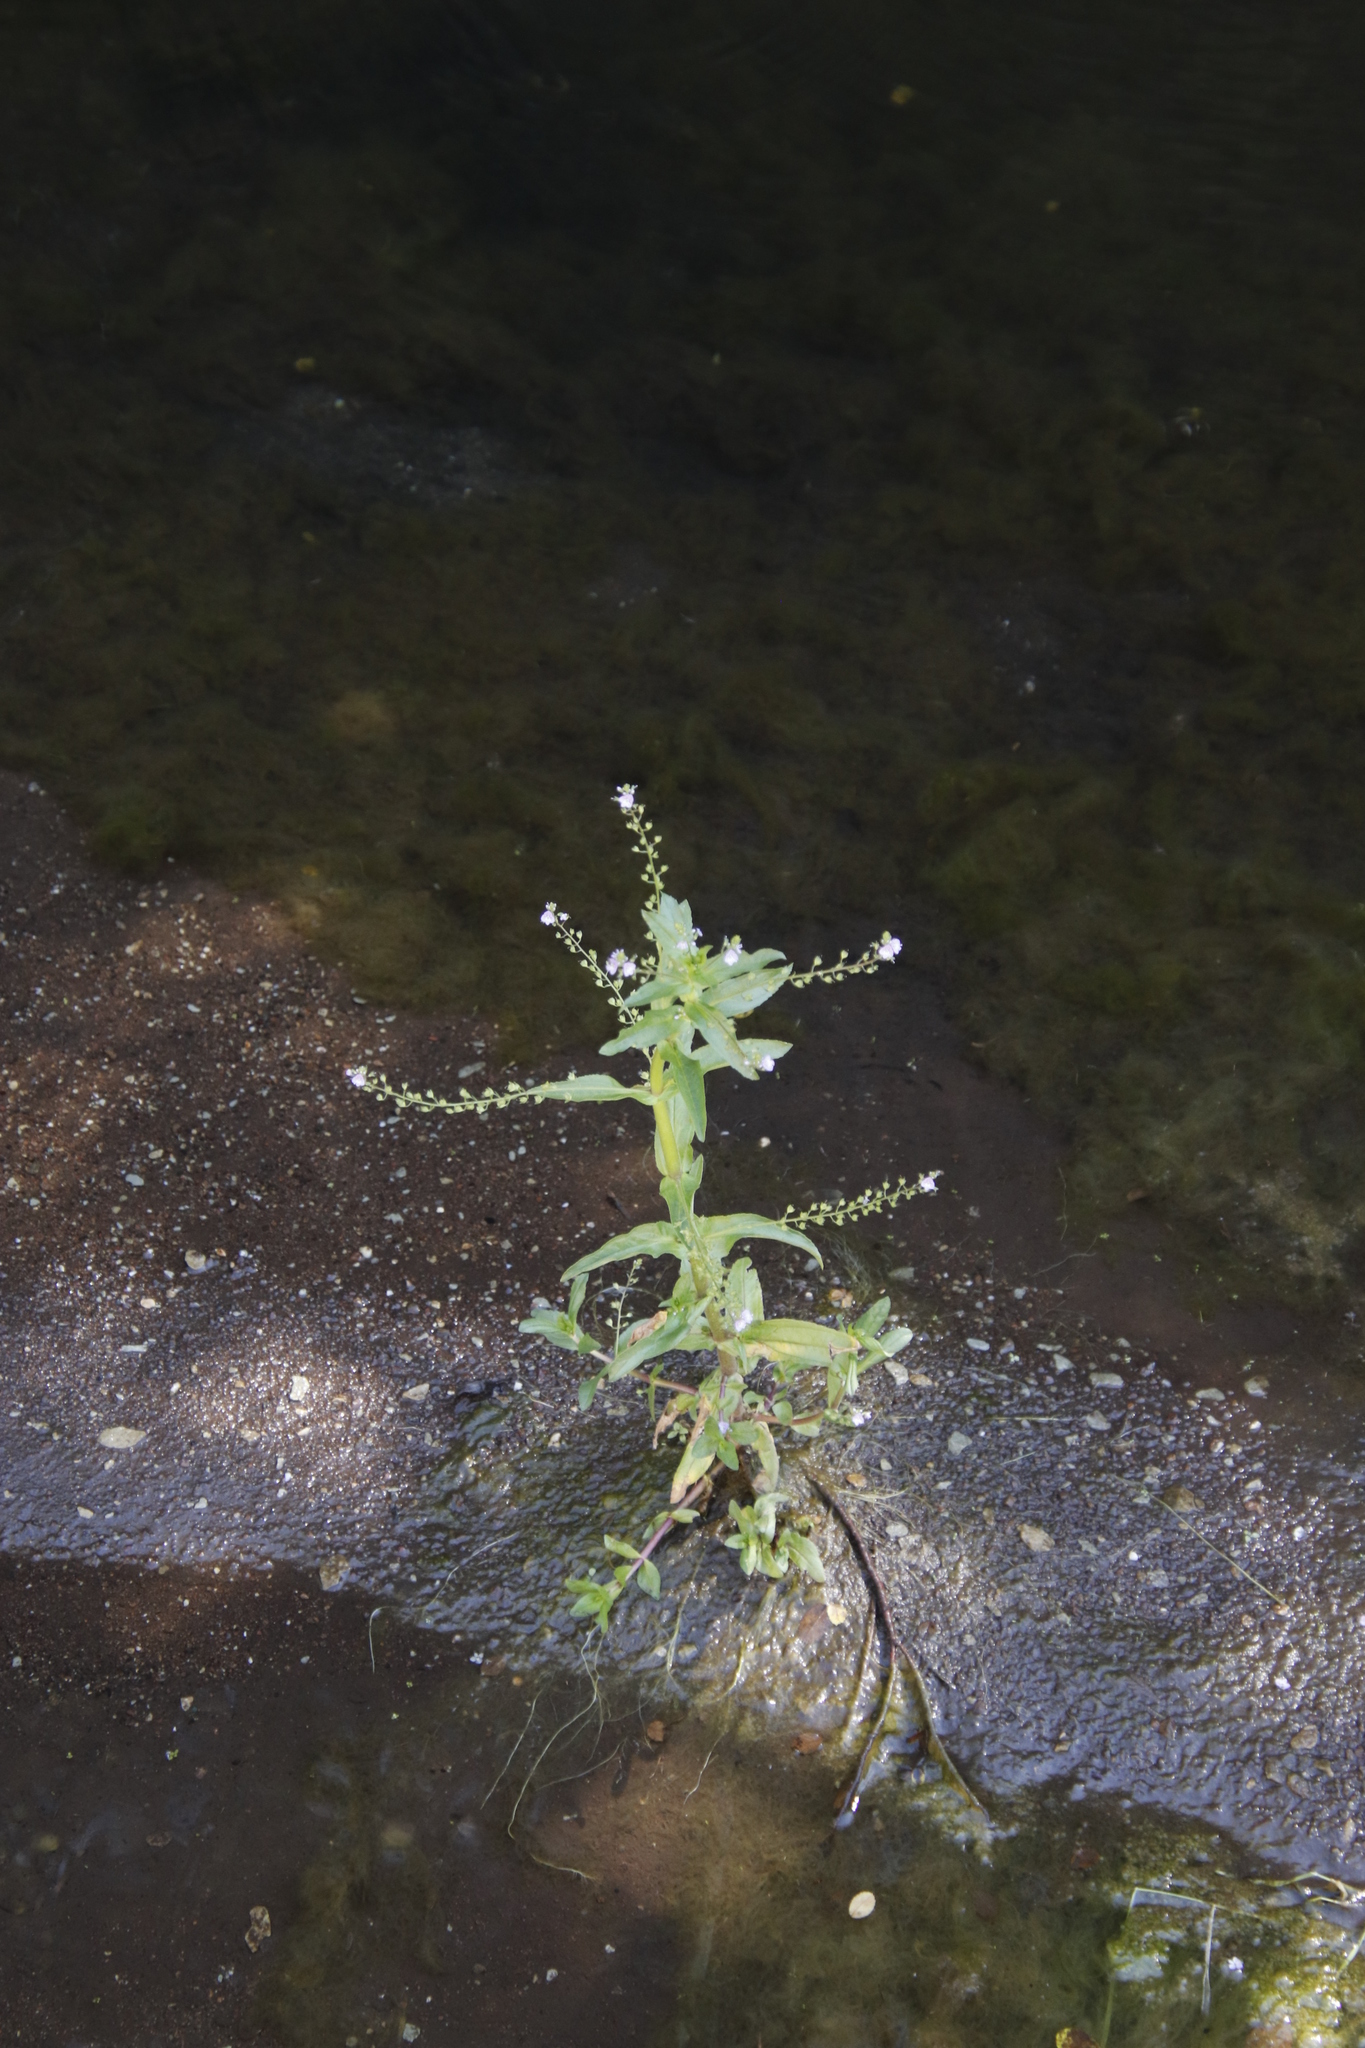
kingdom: Plantae
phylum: Tracheophyta
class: Magnoliopsida
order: Lamiales
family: Plantaginaceae
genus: Veronica
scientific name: Veronica anagallis-aquatica
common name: Water speedwell
